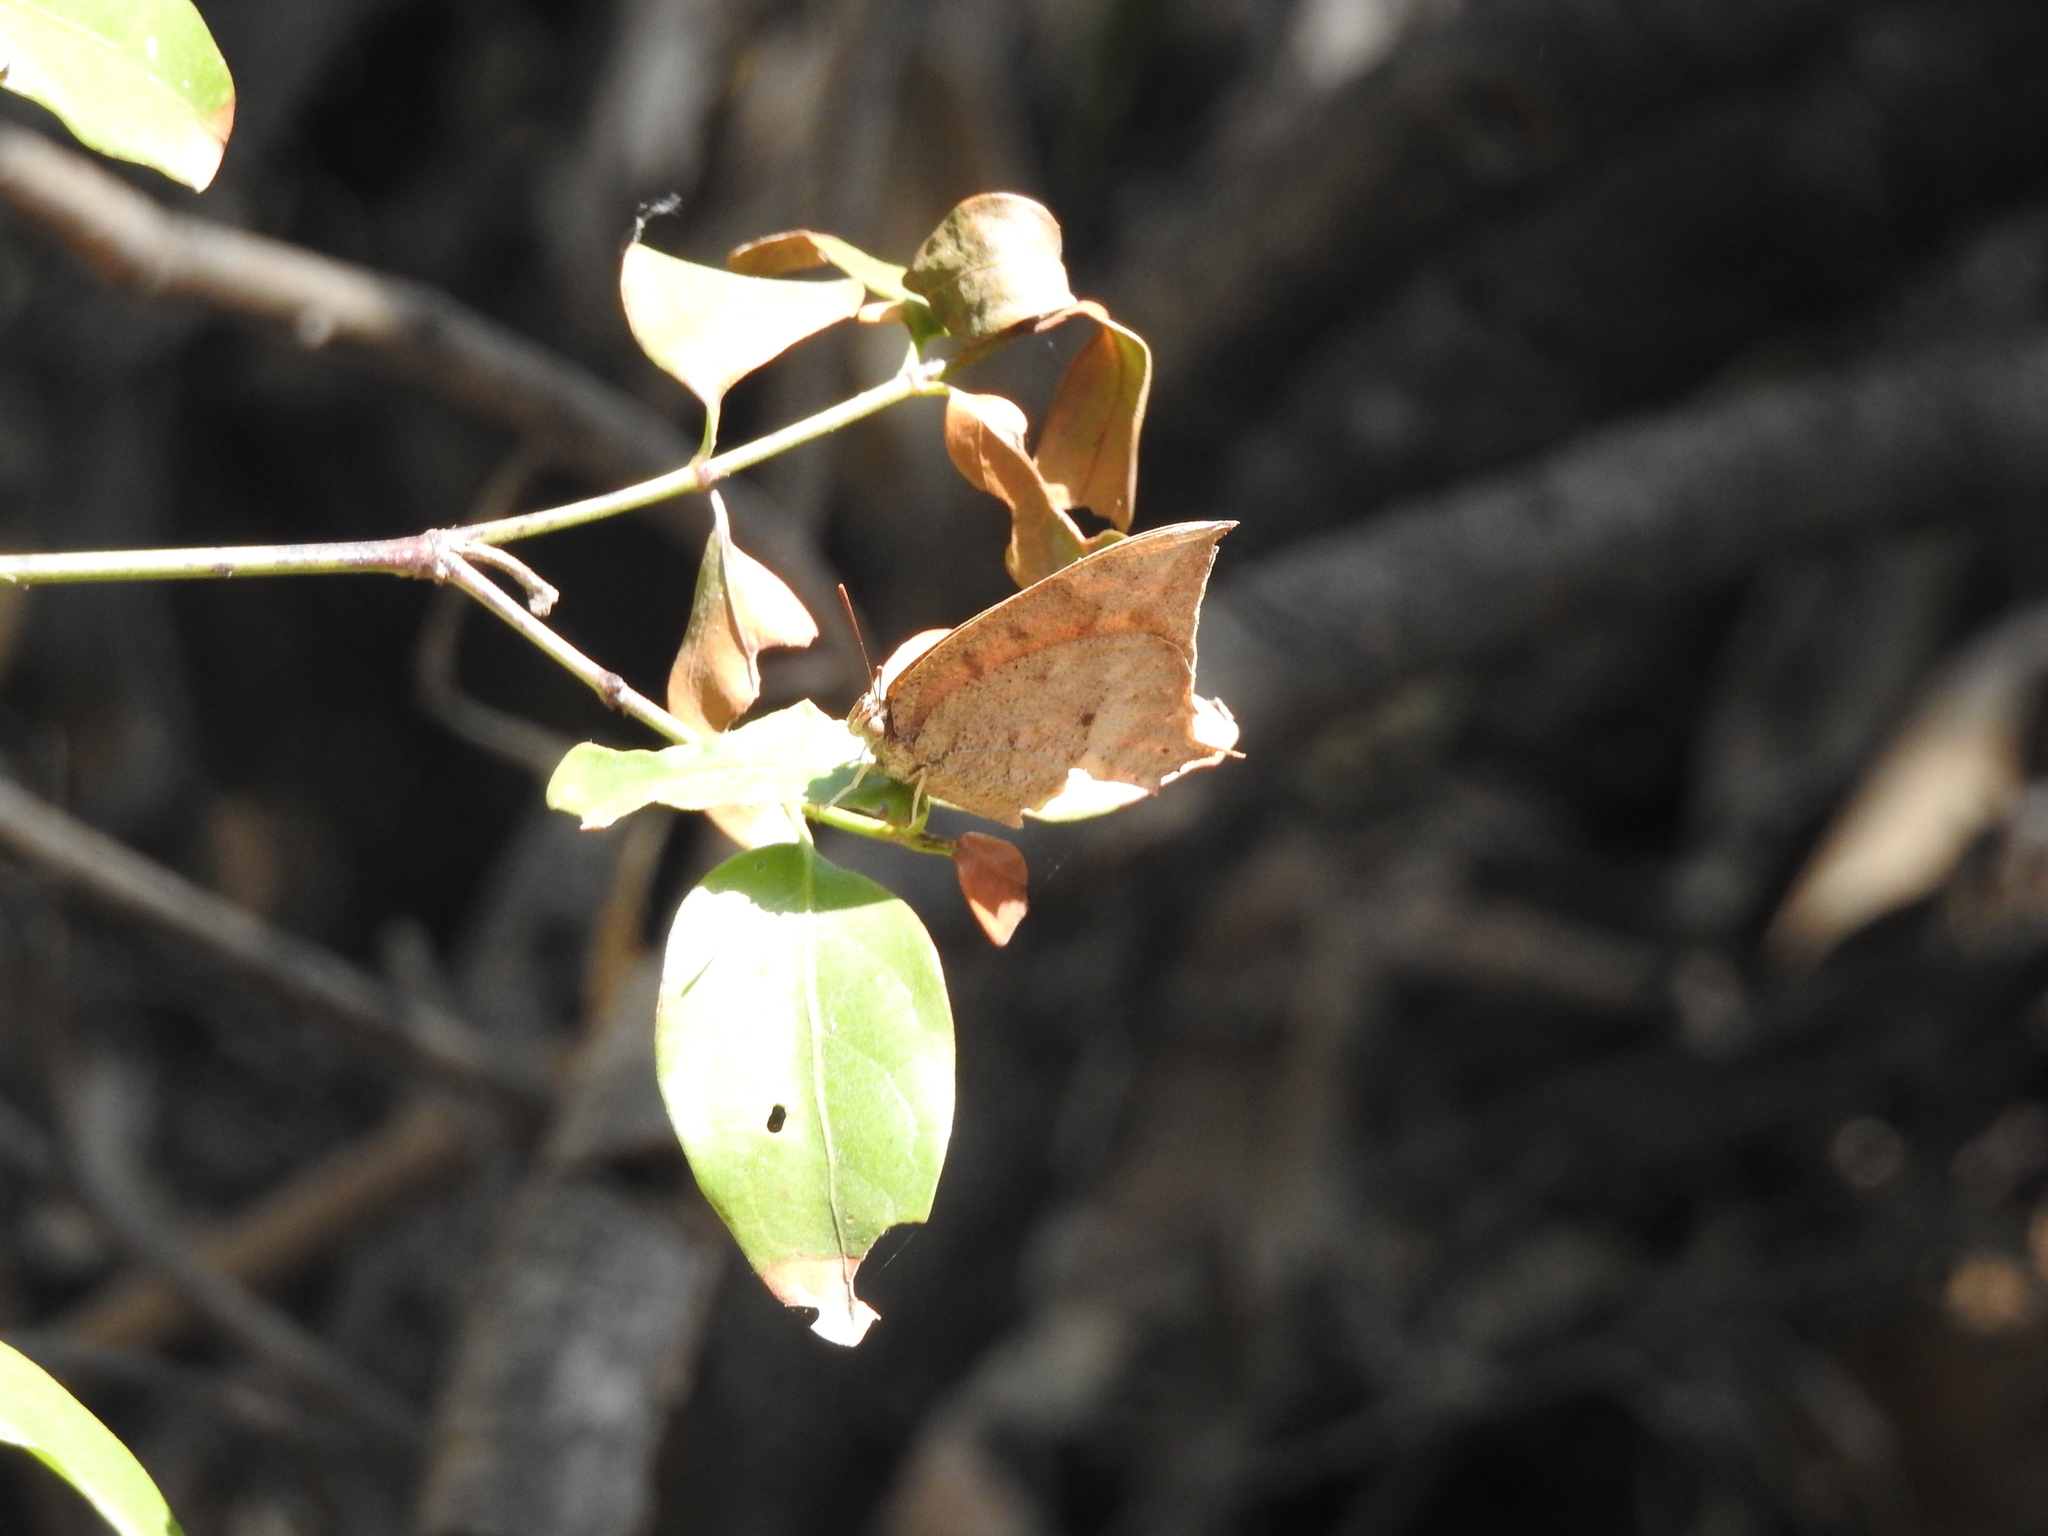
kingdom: Animalia
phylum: Arthropoda
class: Insecta
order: Lepidoptera
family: Nymphalidae
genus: Anaea
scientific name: Anaea aidea
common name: Tropical leafwing
